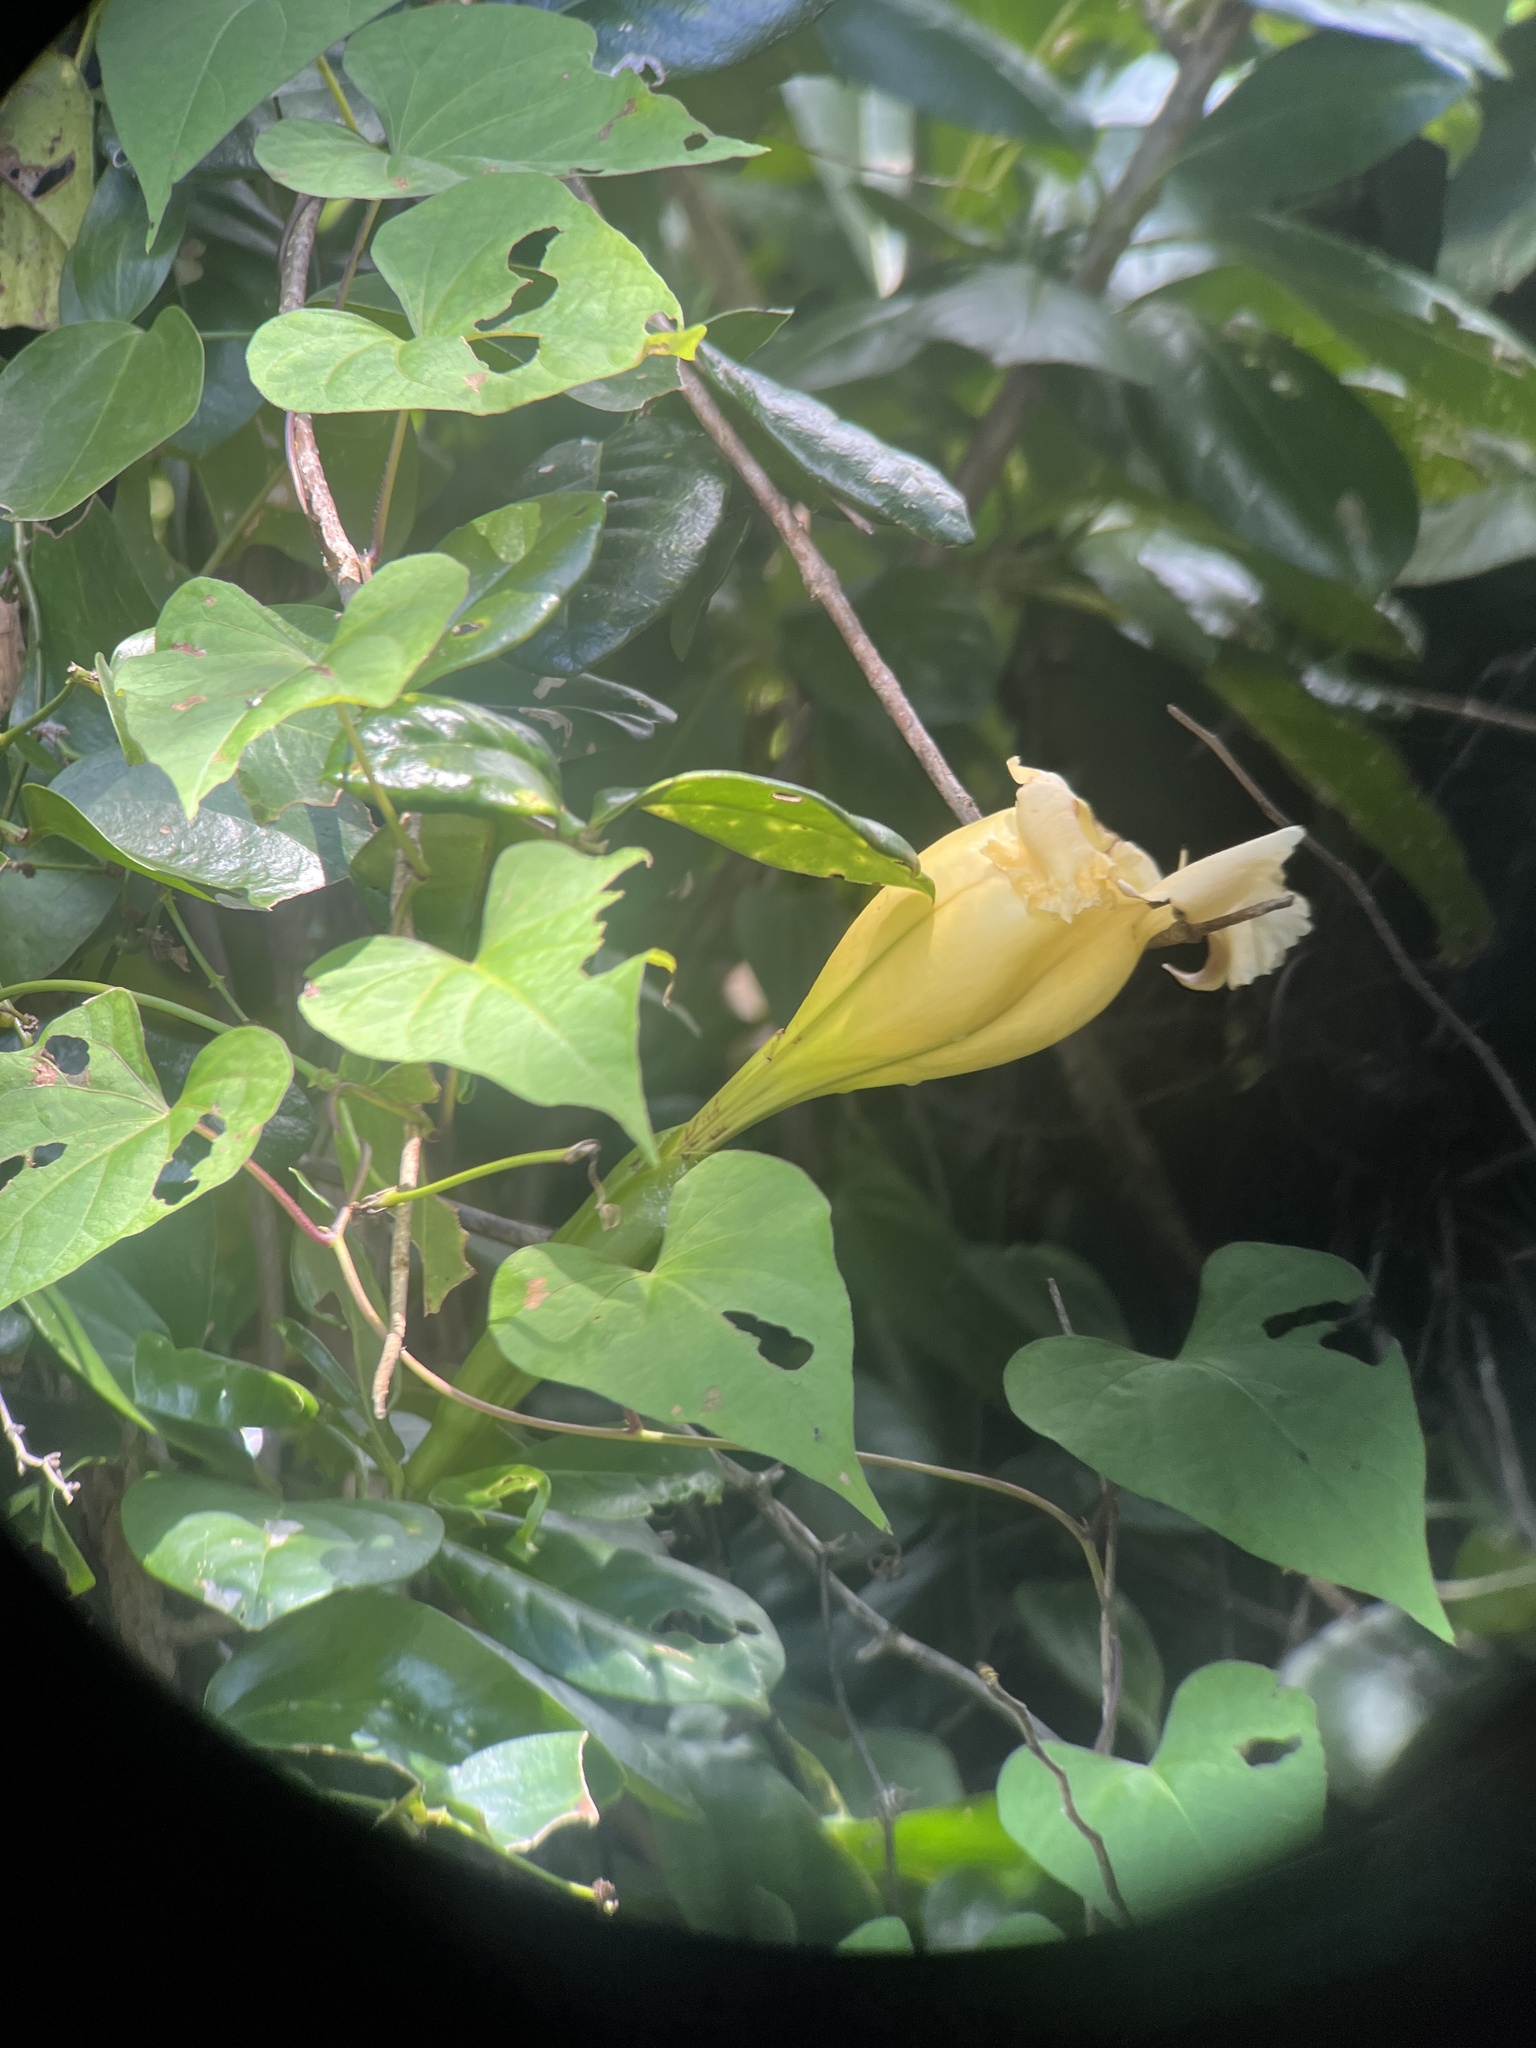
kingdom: Plantae
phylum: Tracheophyta
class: Magnoliopsida
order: Solanales
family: Solanaceae
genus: Solandra
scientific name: Solandra grandiflora
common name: Showy chalicevine
